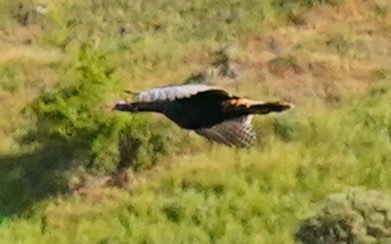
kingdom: Animalia
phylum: Chordata
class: Aves
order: Galliformes
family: Phasianidae
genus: Meleagris
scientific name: Meleagris gallopavo
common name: Wild turkey
